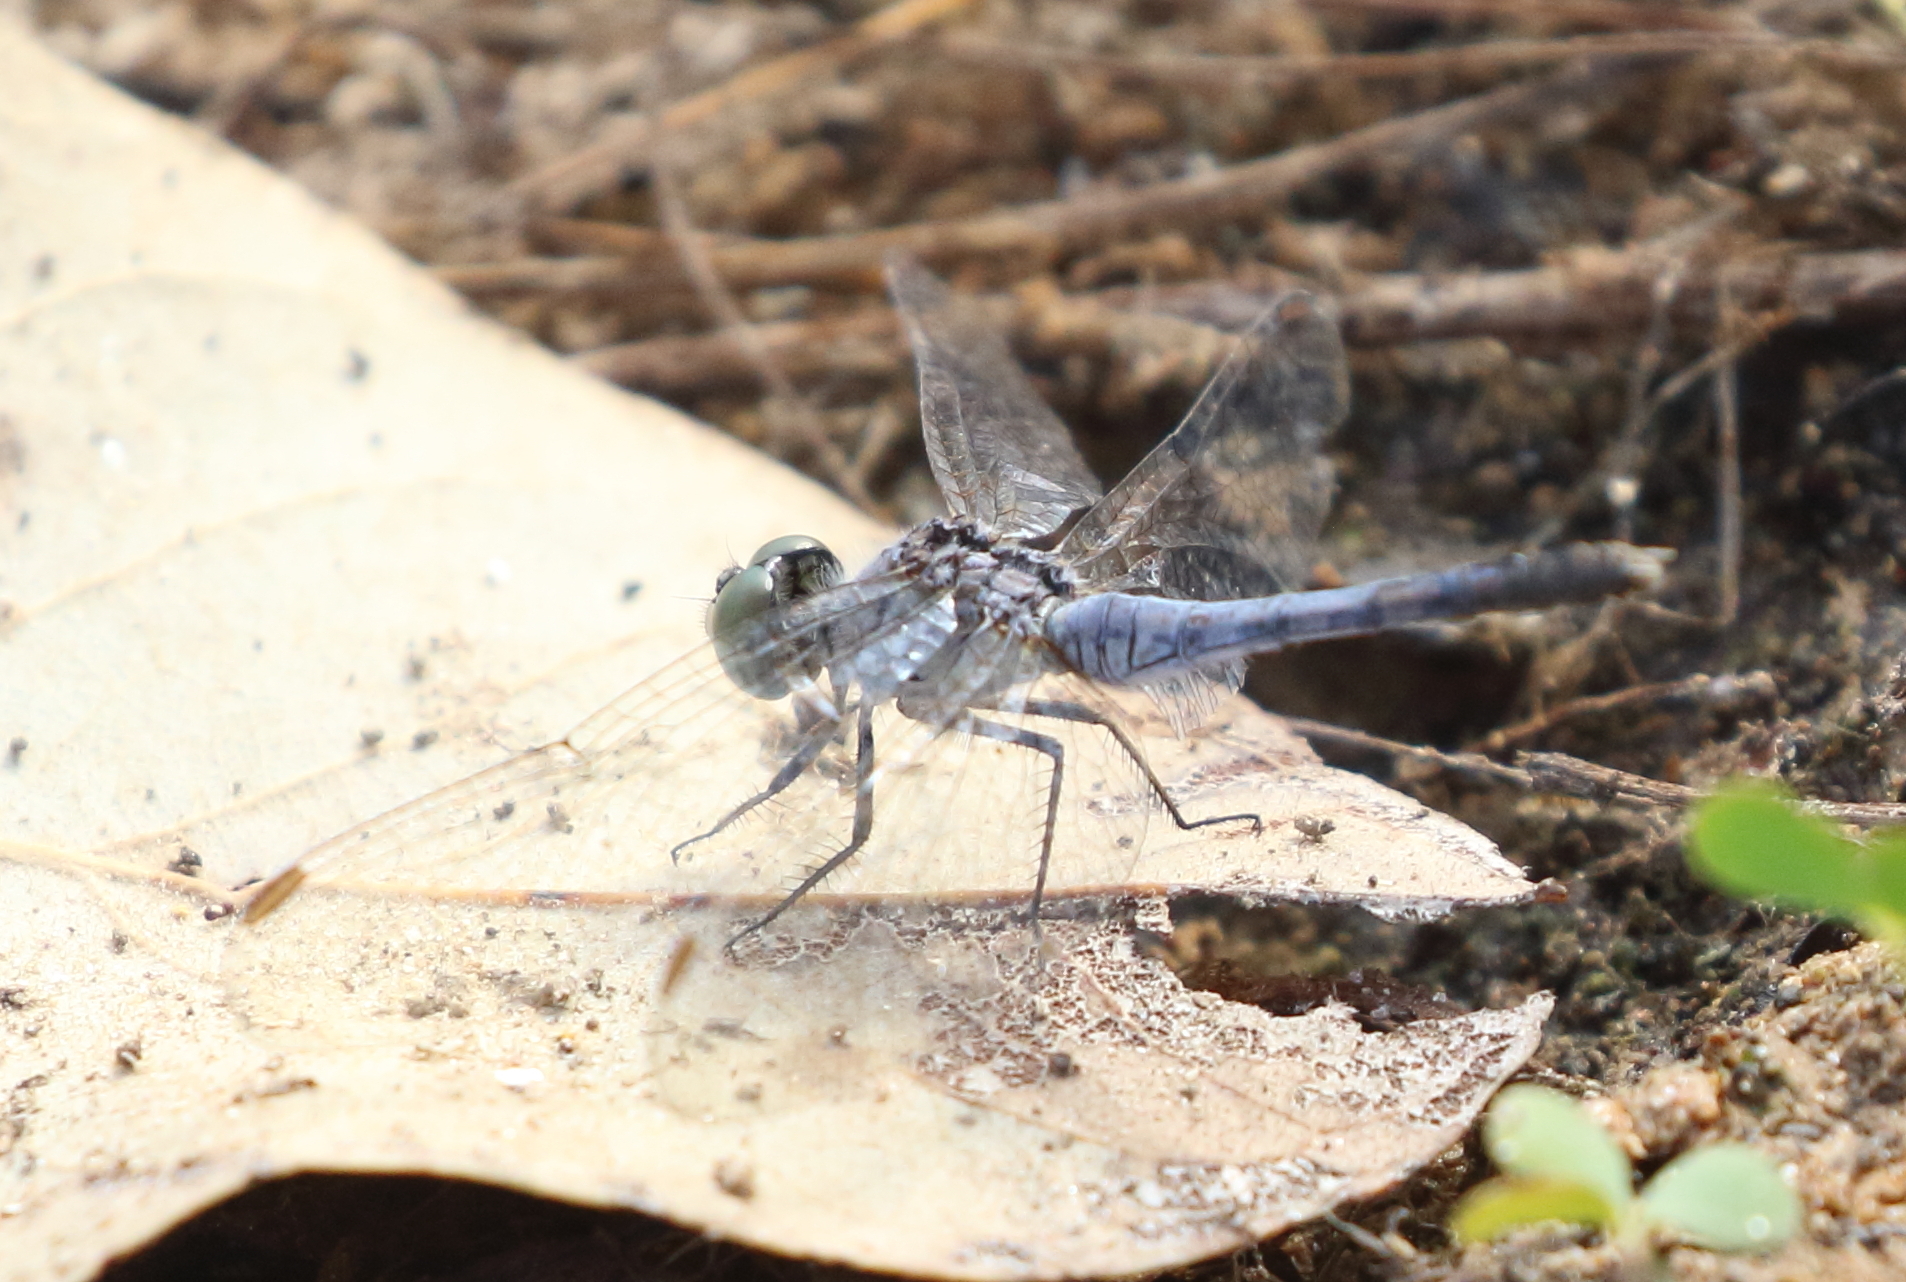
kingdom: Animalia
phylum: Arthropoda
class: Insecta
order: Odonata
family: Libellulidae
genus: Diplacodes
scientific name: Diplacodes trivialis
